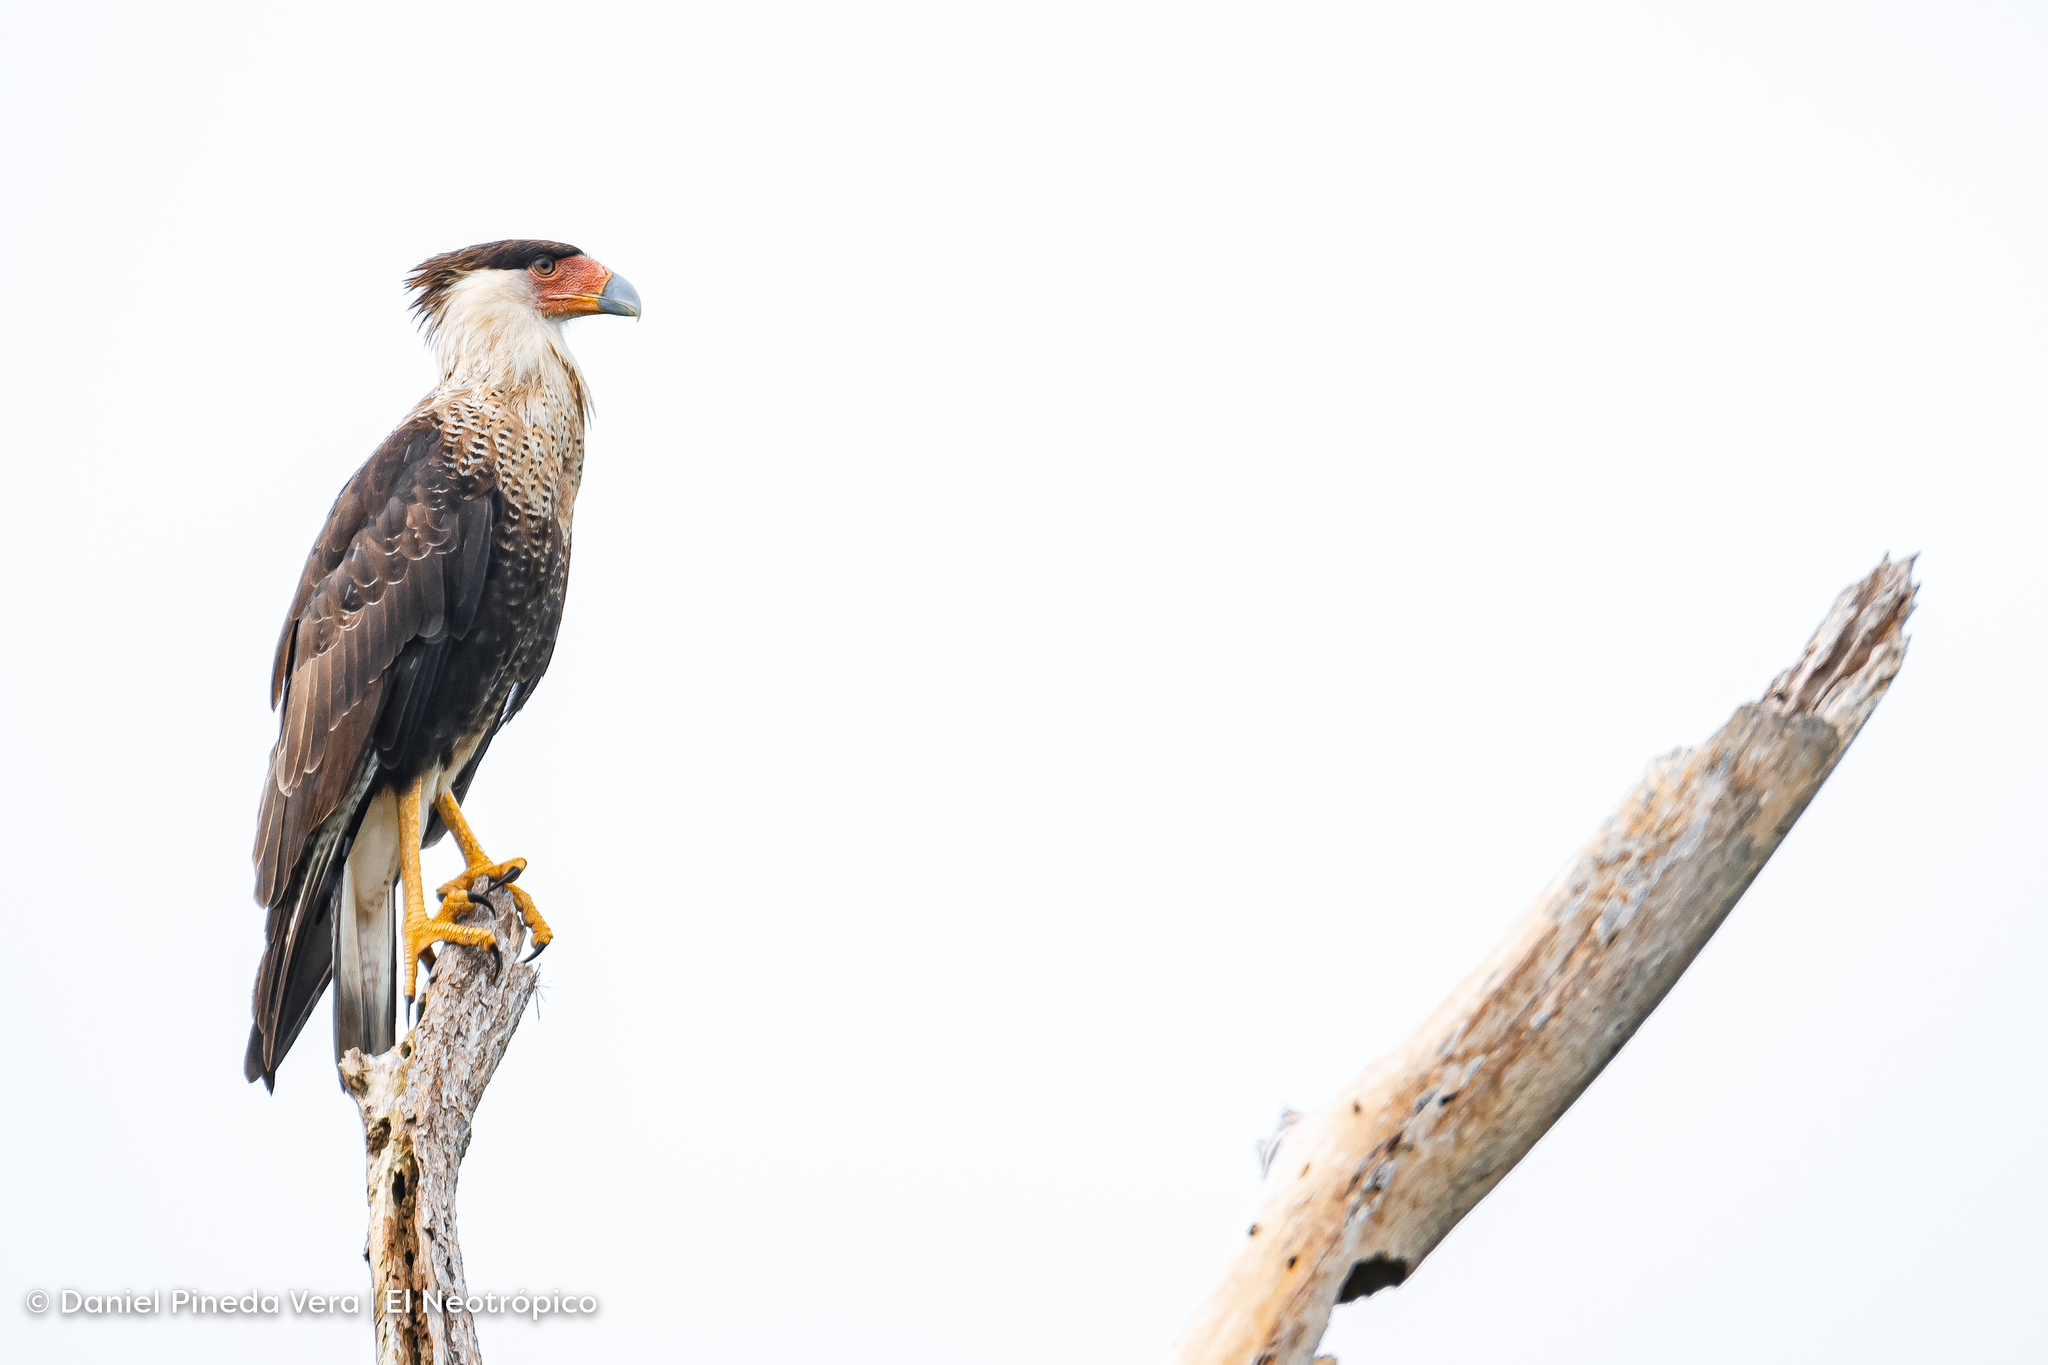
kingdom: Animalia
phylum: Chordata
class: Aves
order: Falconiformes
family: Falconidae
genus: Caracara
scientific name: Caracara plancus
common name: Southern caracara
